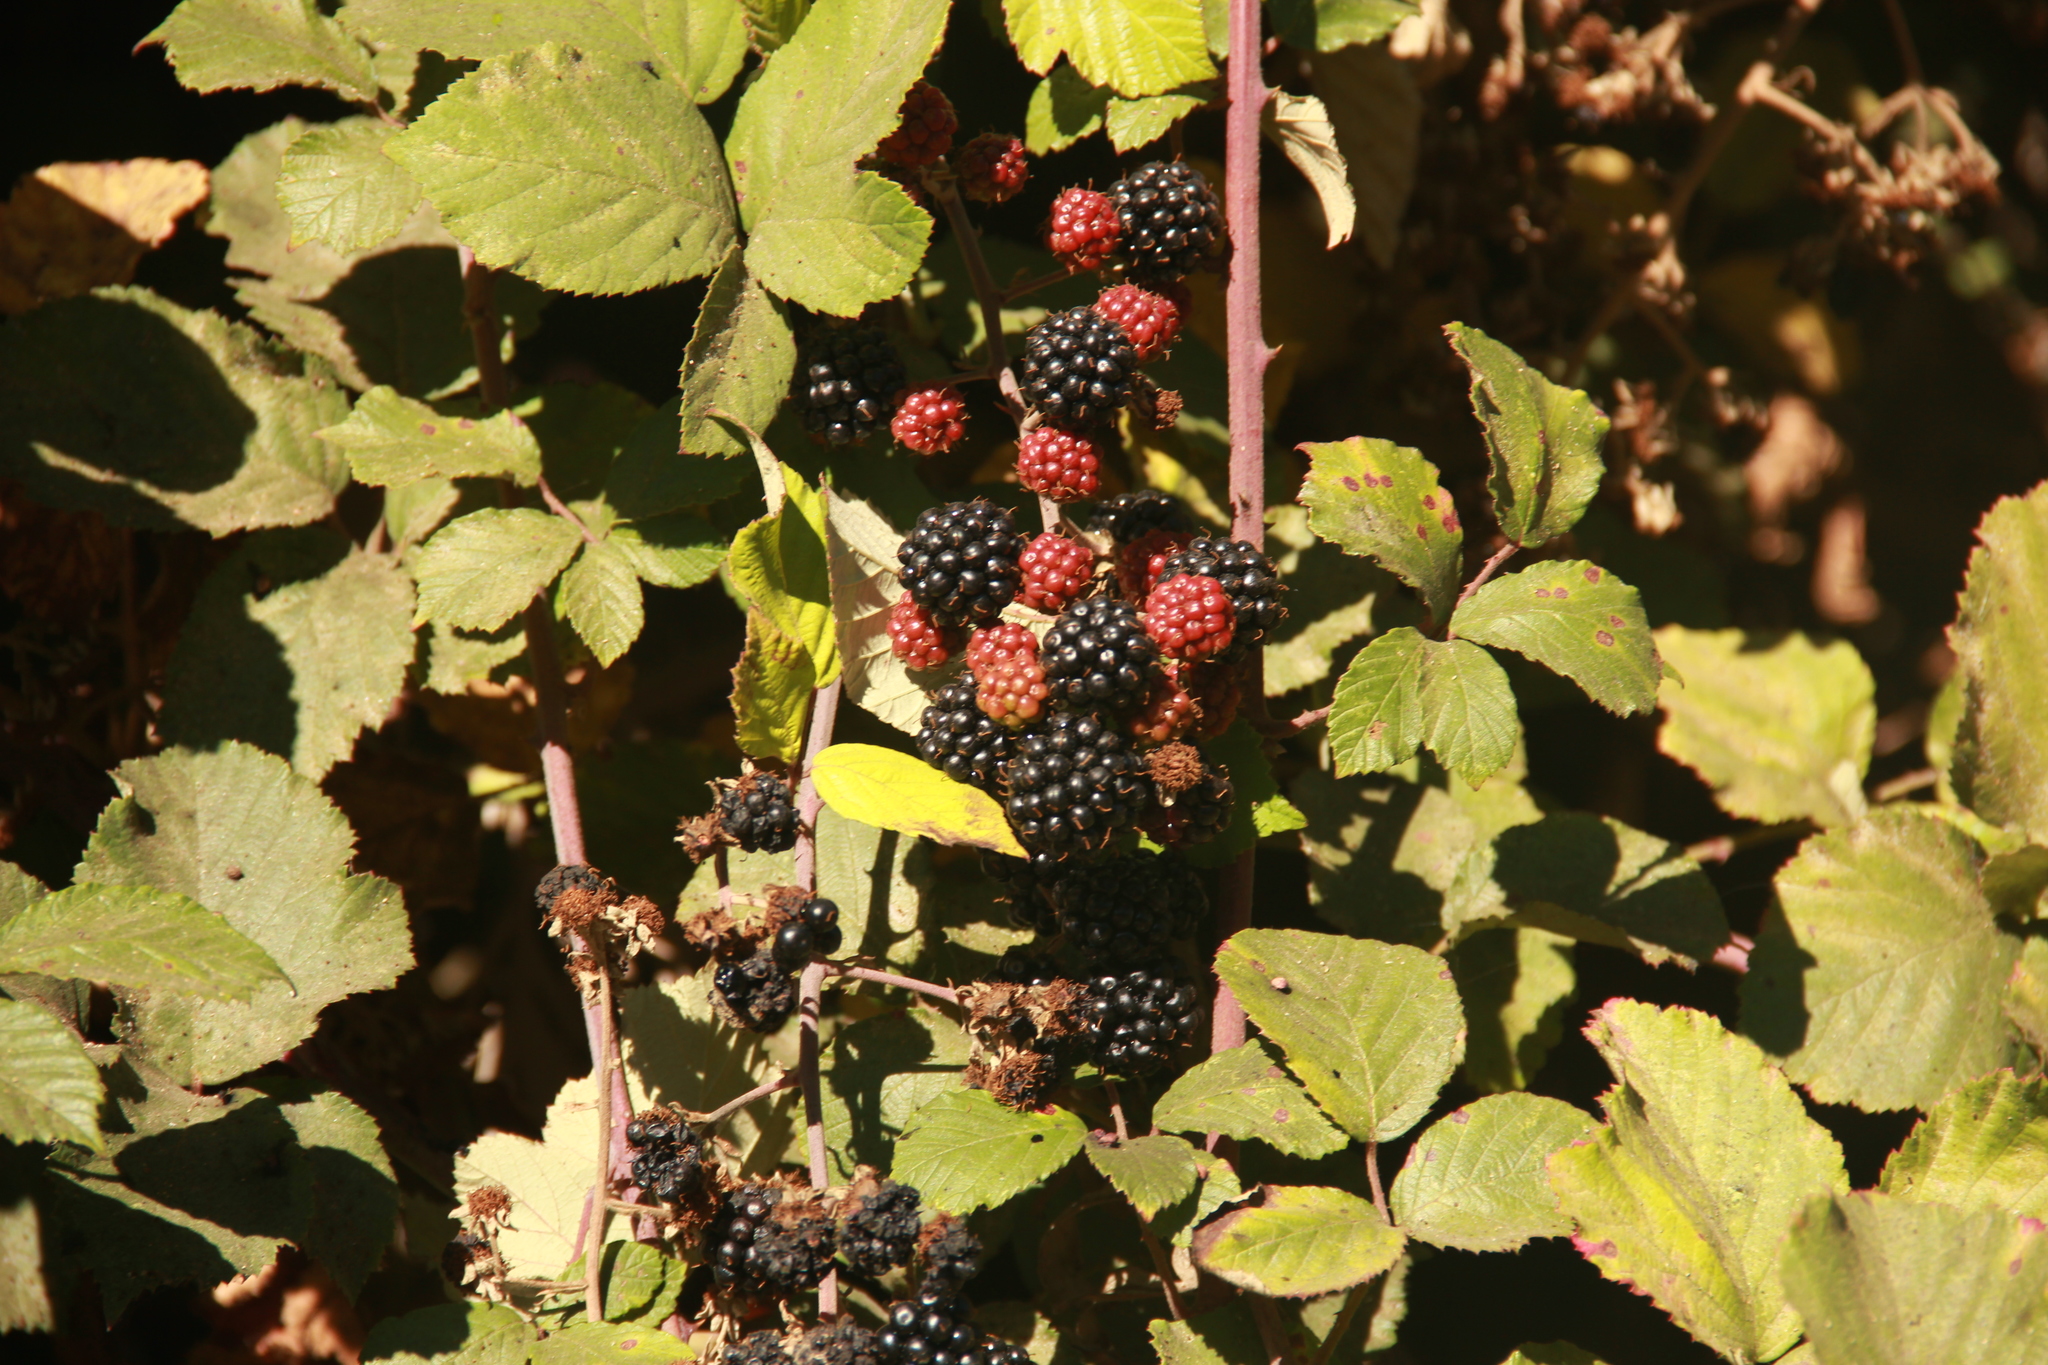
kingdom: Plantae
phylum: Tracheophyta
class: Magnoliopsida
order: Rosales
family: Rosaceae
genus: Rubus
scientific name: Rubus ulmifolius
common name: Elmleaf blackberry
